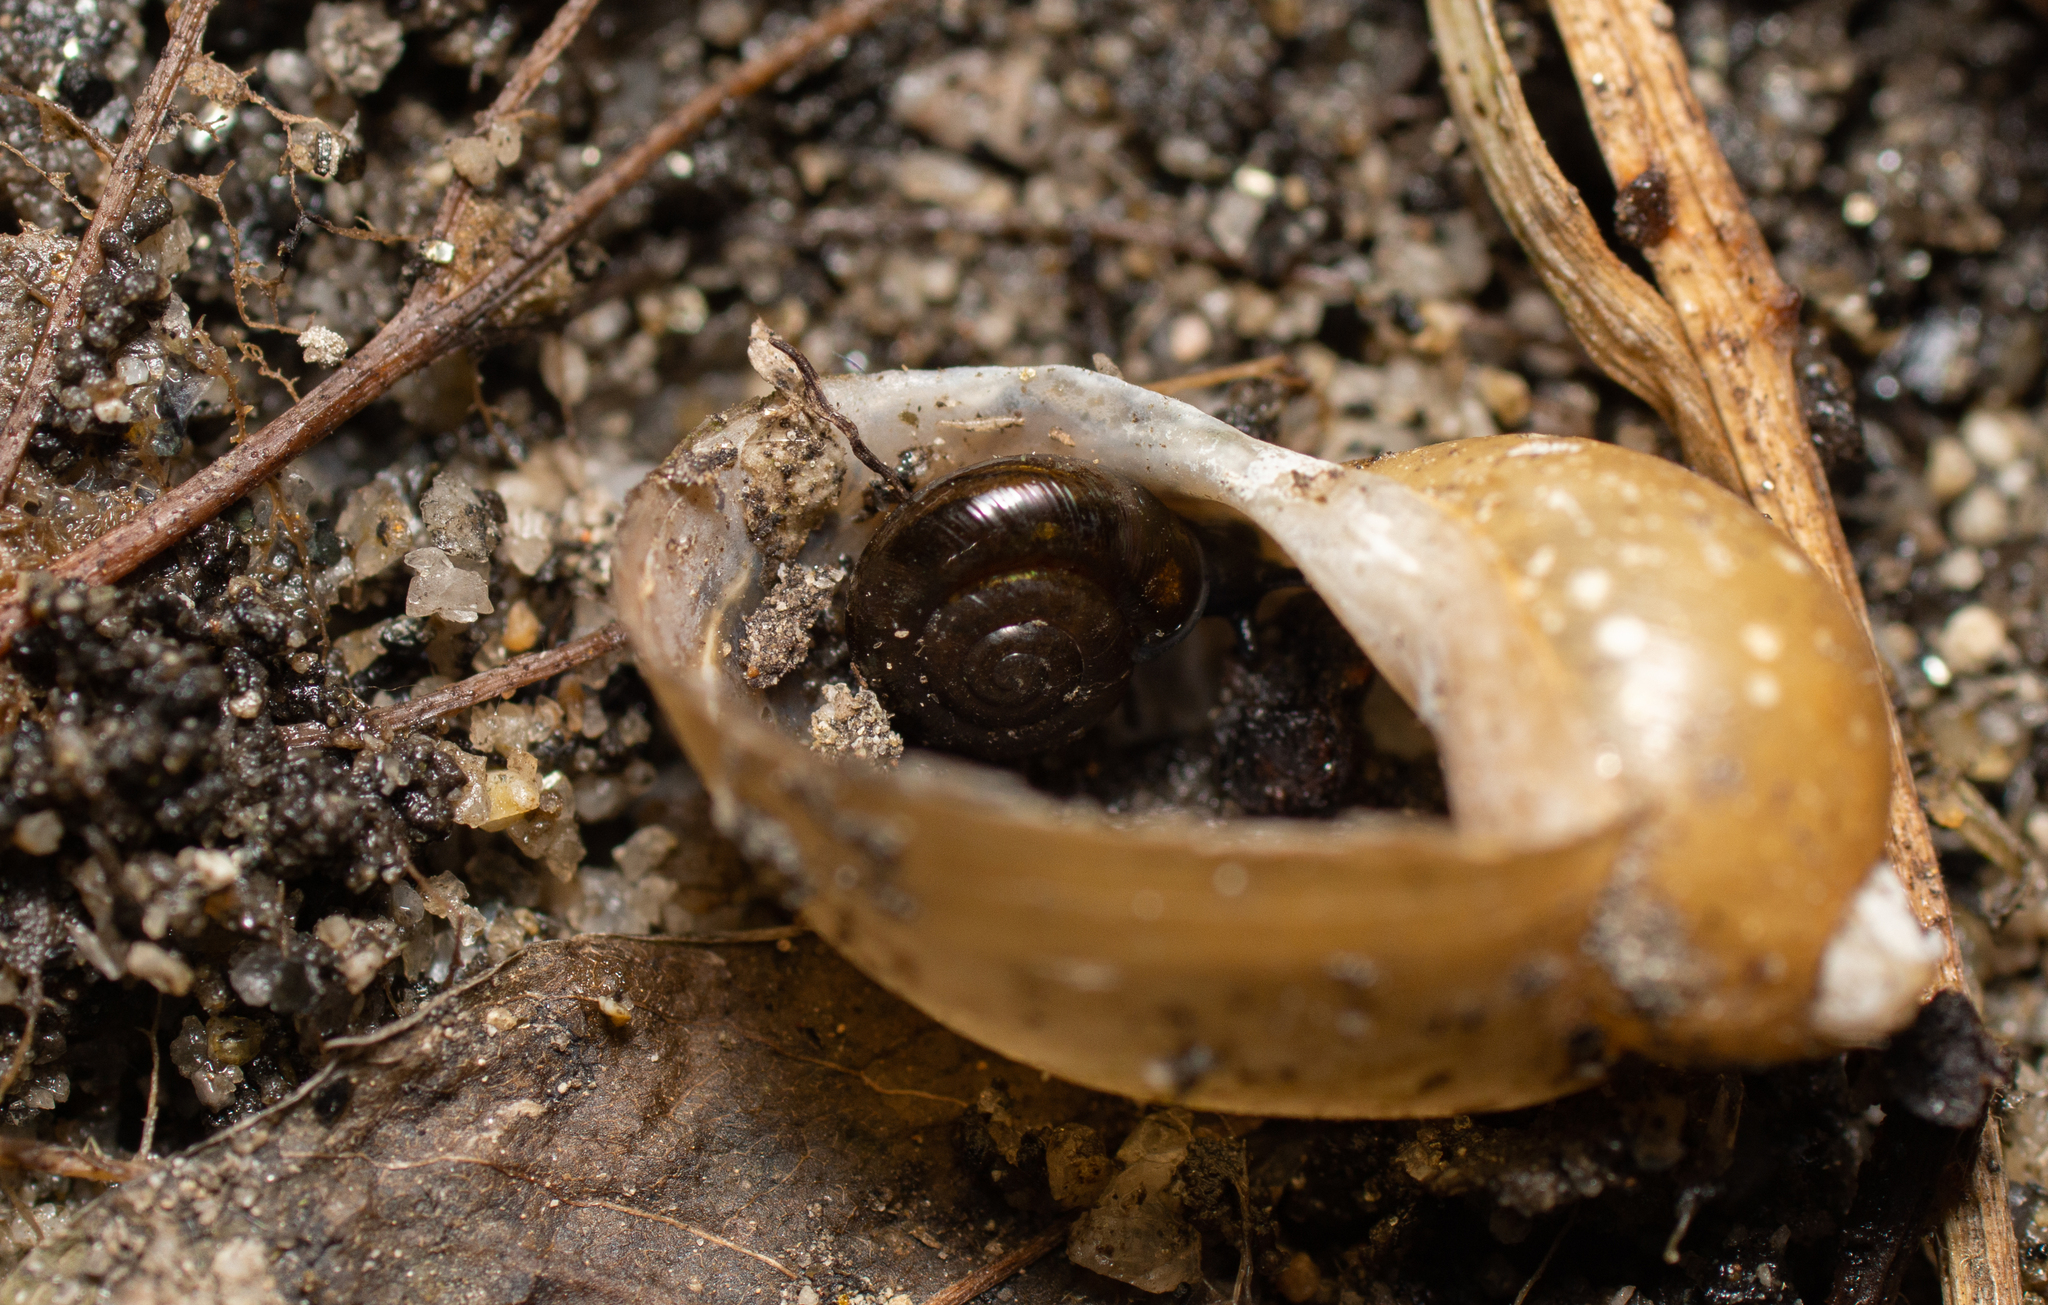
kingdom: Animalia
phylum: Mollusca
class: Gastropoda
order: Stylommatophora
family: Gastrodontidae
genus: Zonitoides
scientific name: Zonitoides nitidus
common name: Shiny glass snail
